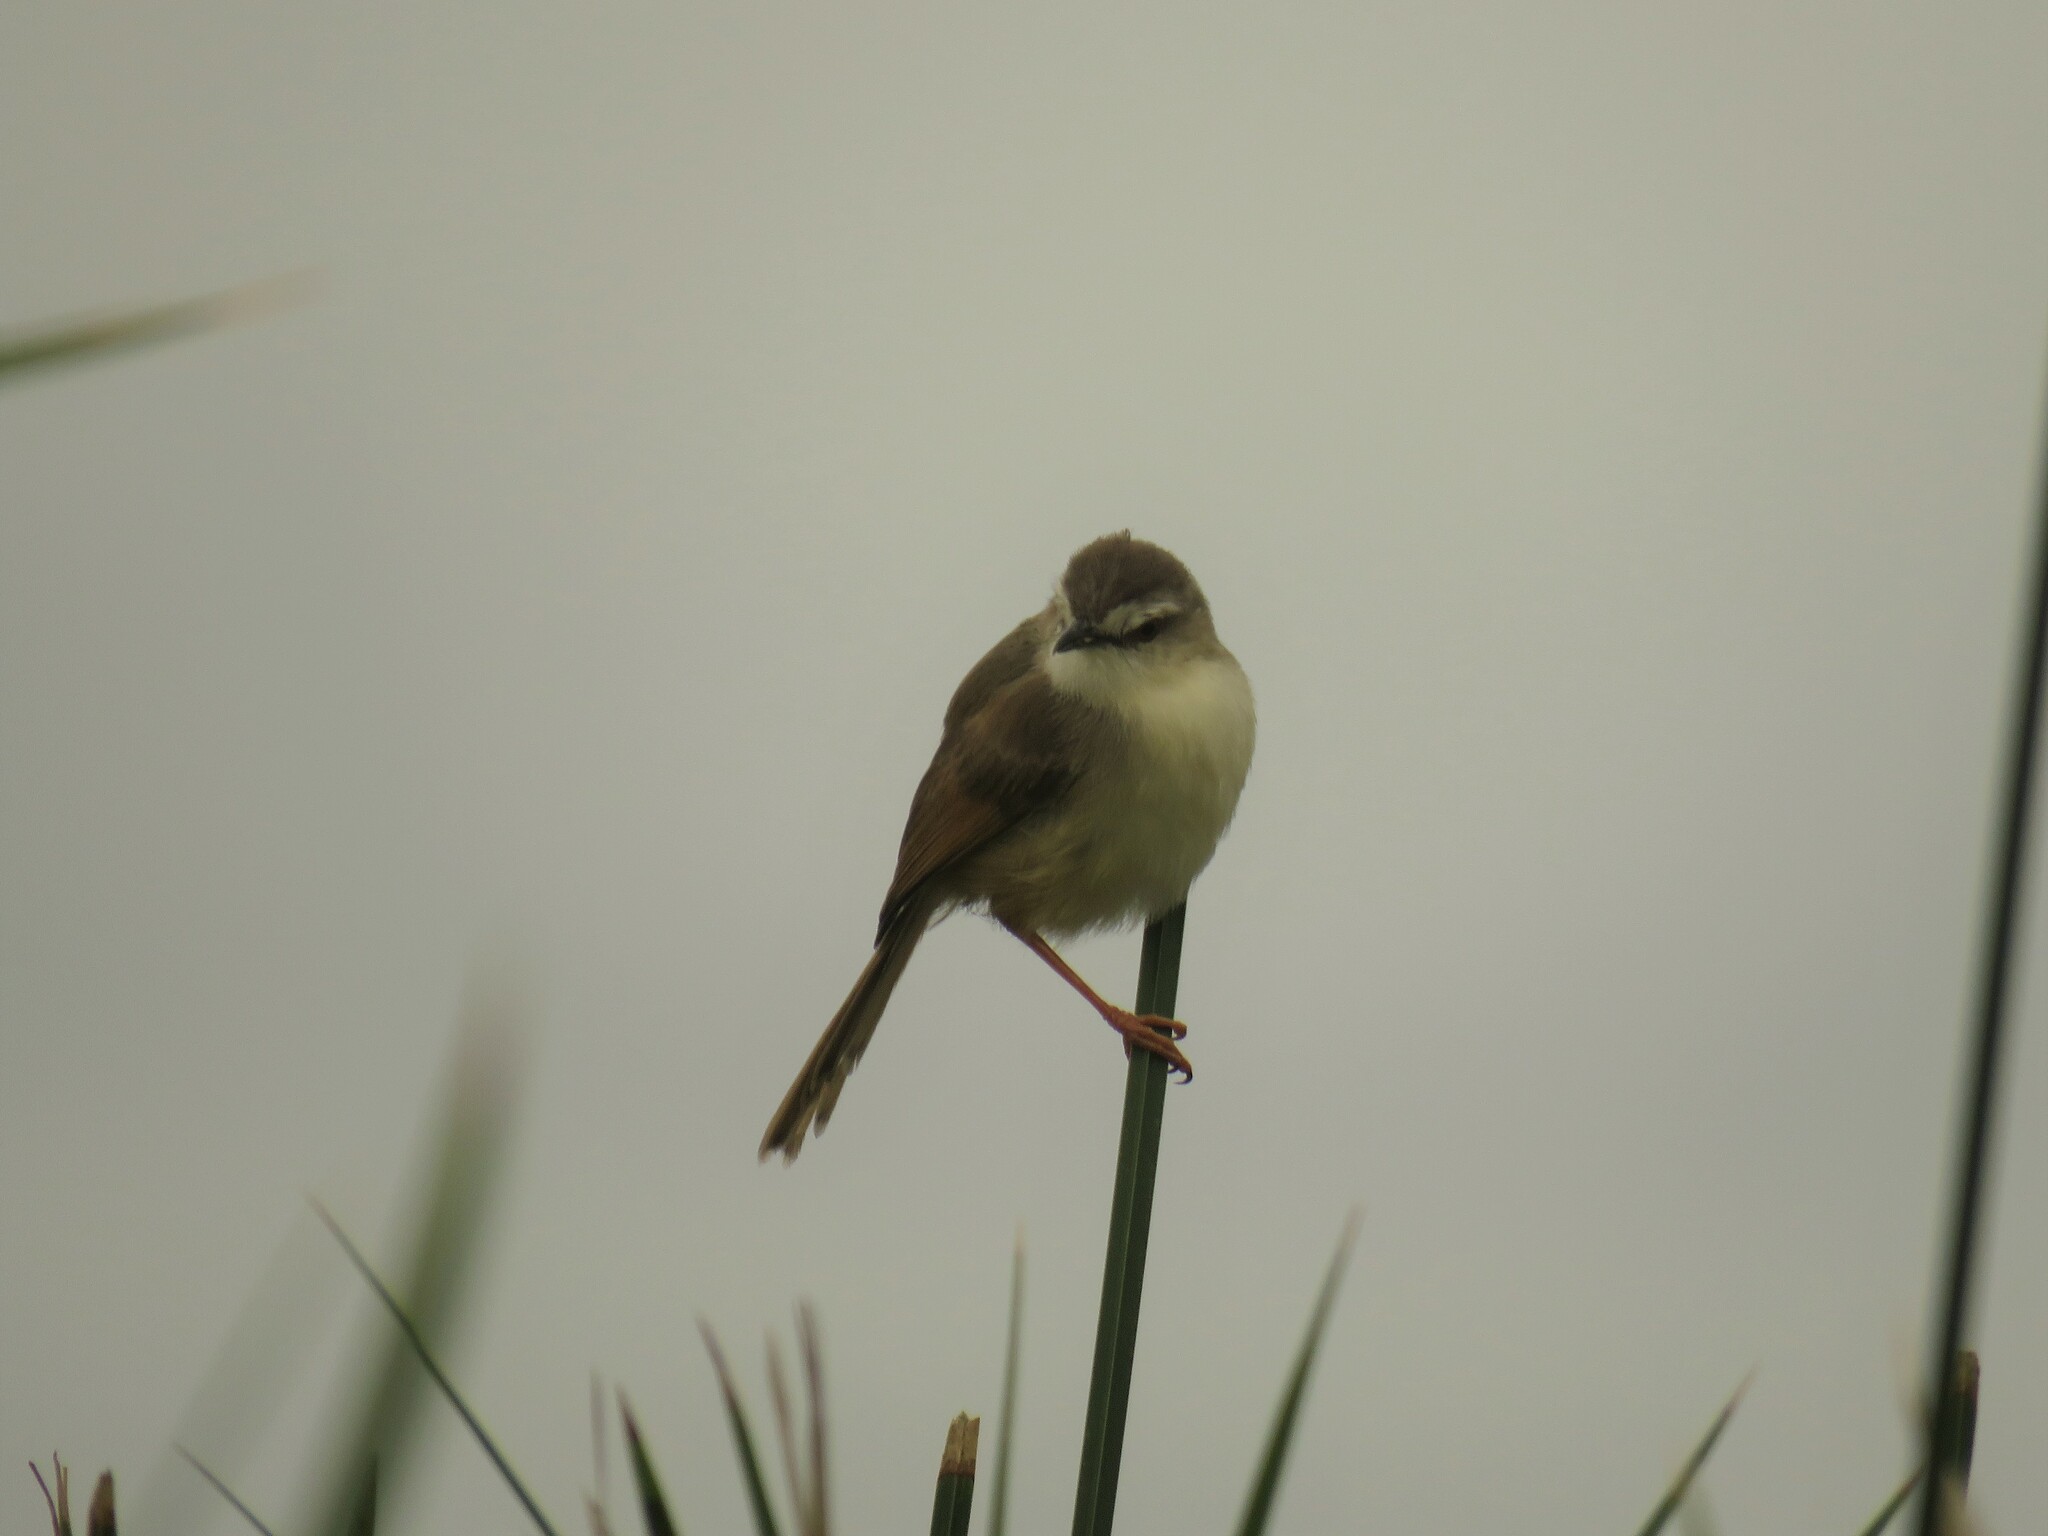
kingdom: Animalia
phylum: Chordata
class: Aves
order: Passeriformes
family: Cisticolidae
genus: Prinia
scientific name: Prinia subflava
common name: Tawny-flanked prinia
